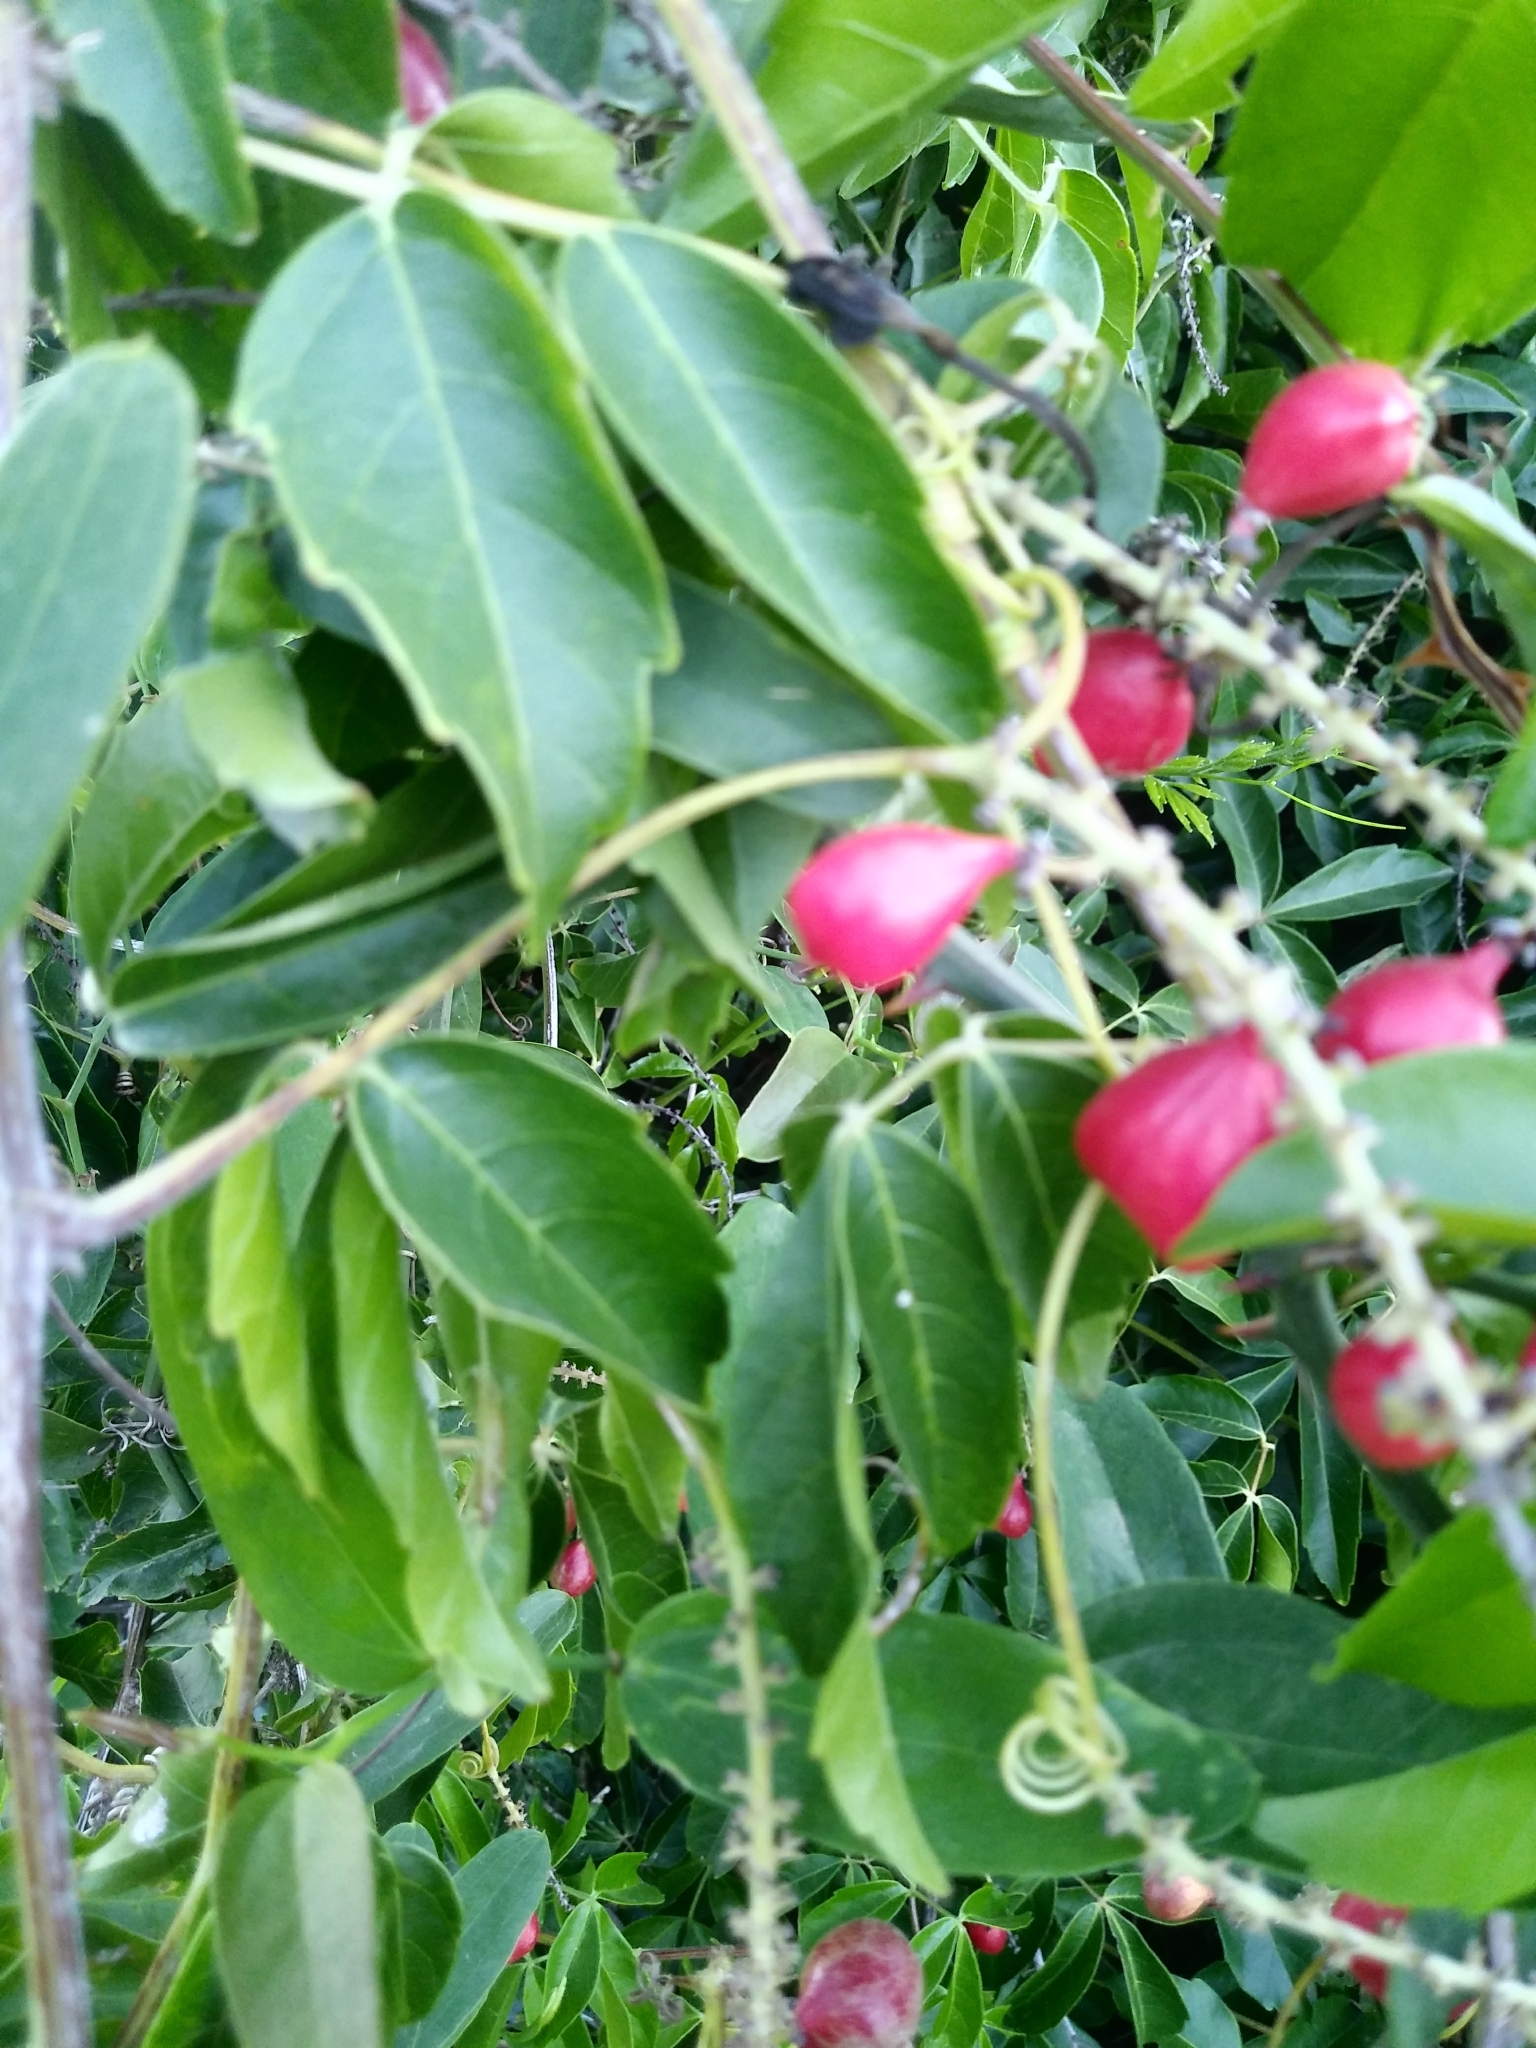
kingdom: Plantae
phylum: Tracheophyta
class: Magnoliopsida
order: Sapindales
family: Sapindaceae
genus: Paullinia
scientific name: Paullinia elegans
